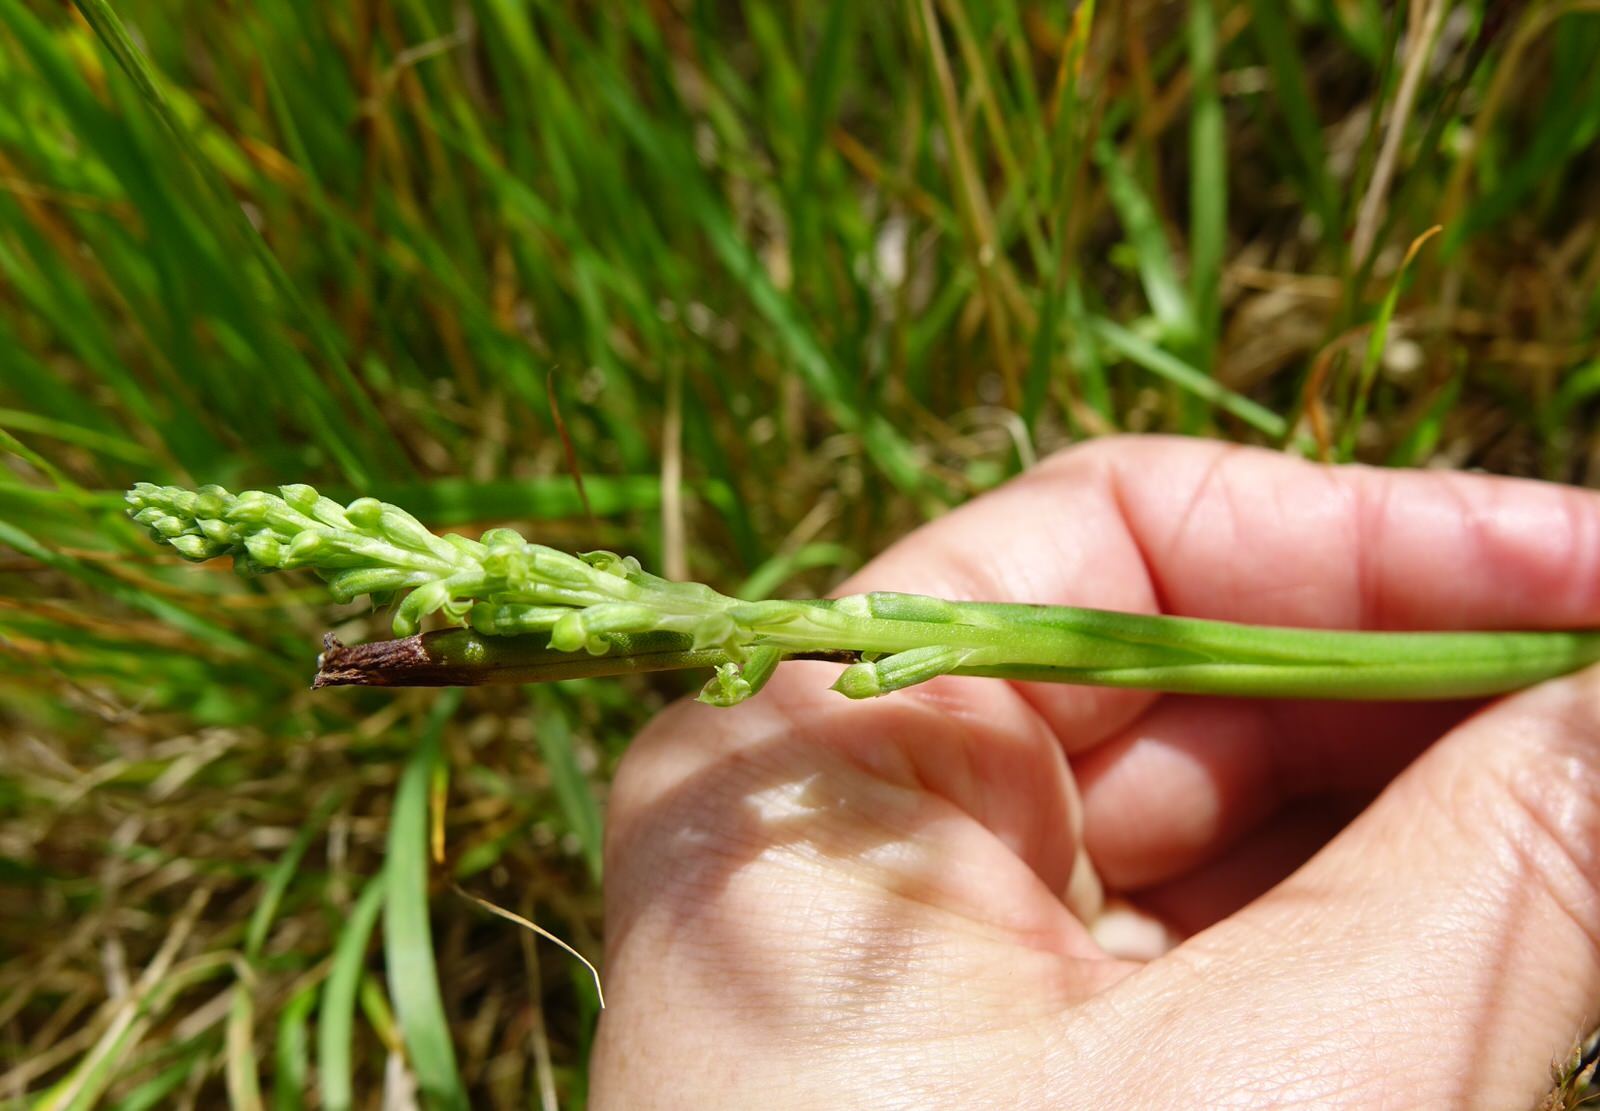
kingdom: Plantae
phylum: Tracheophyta
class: Liliopsida
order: Asparagales
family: Orchidaceae
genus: Microtis
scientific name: Microtis unifolia
